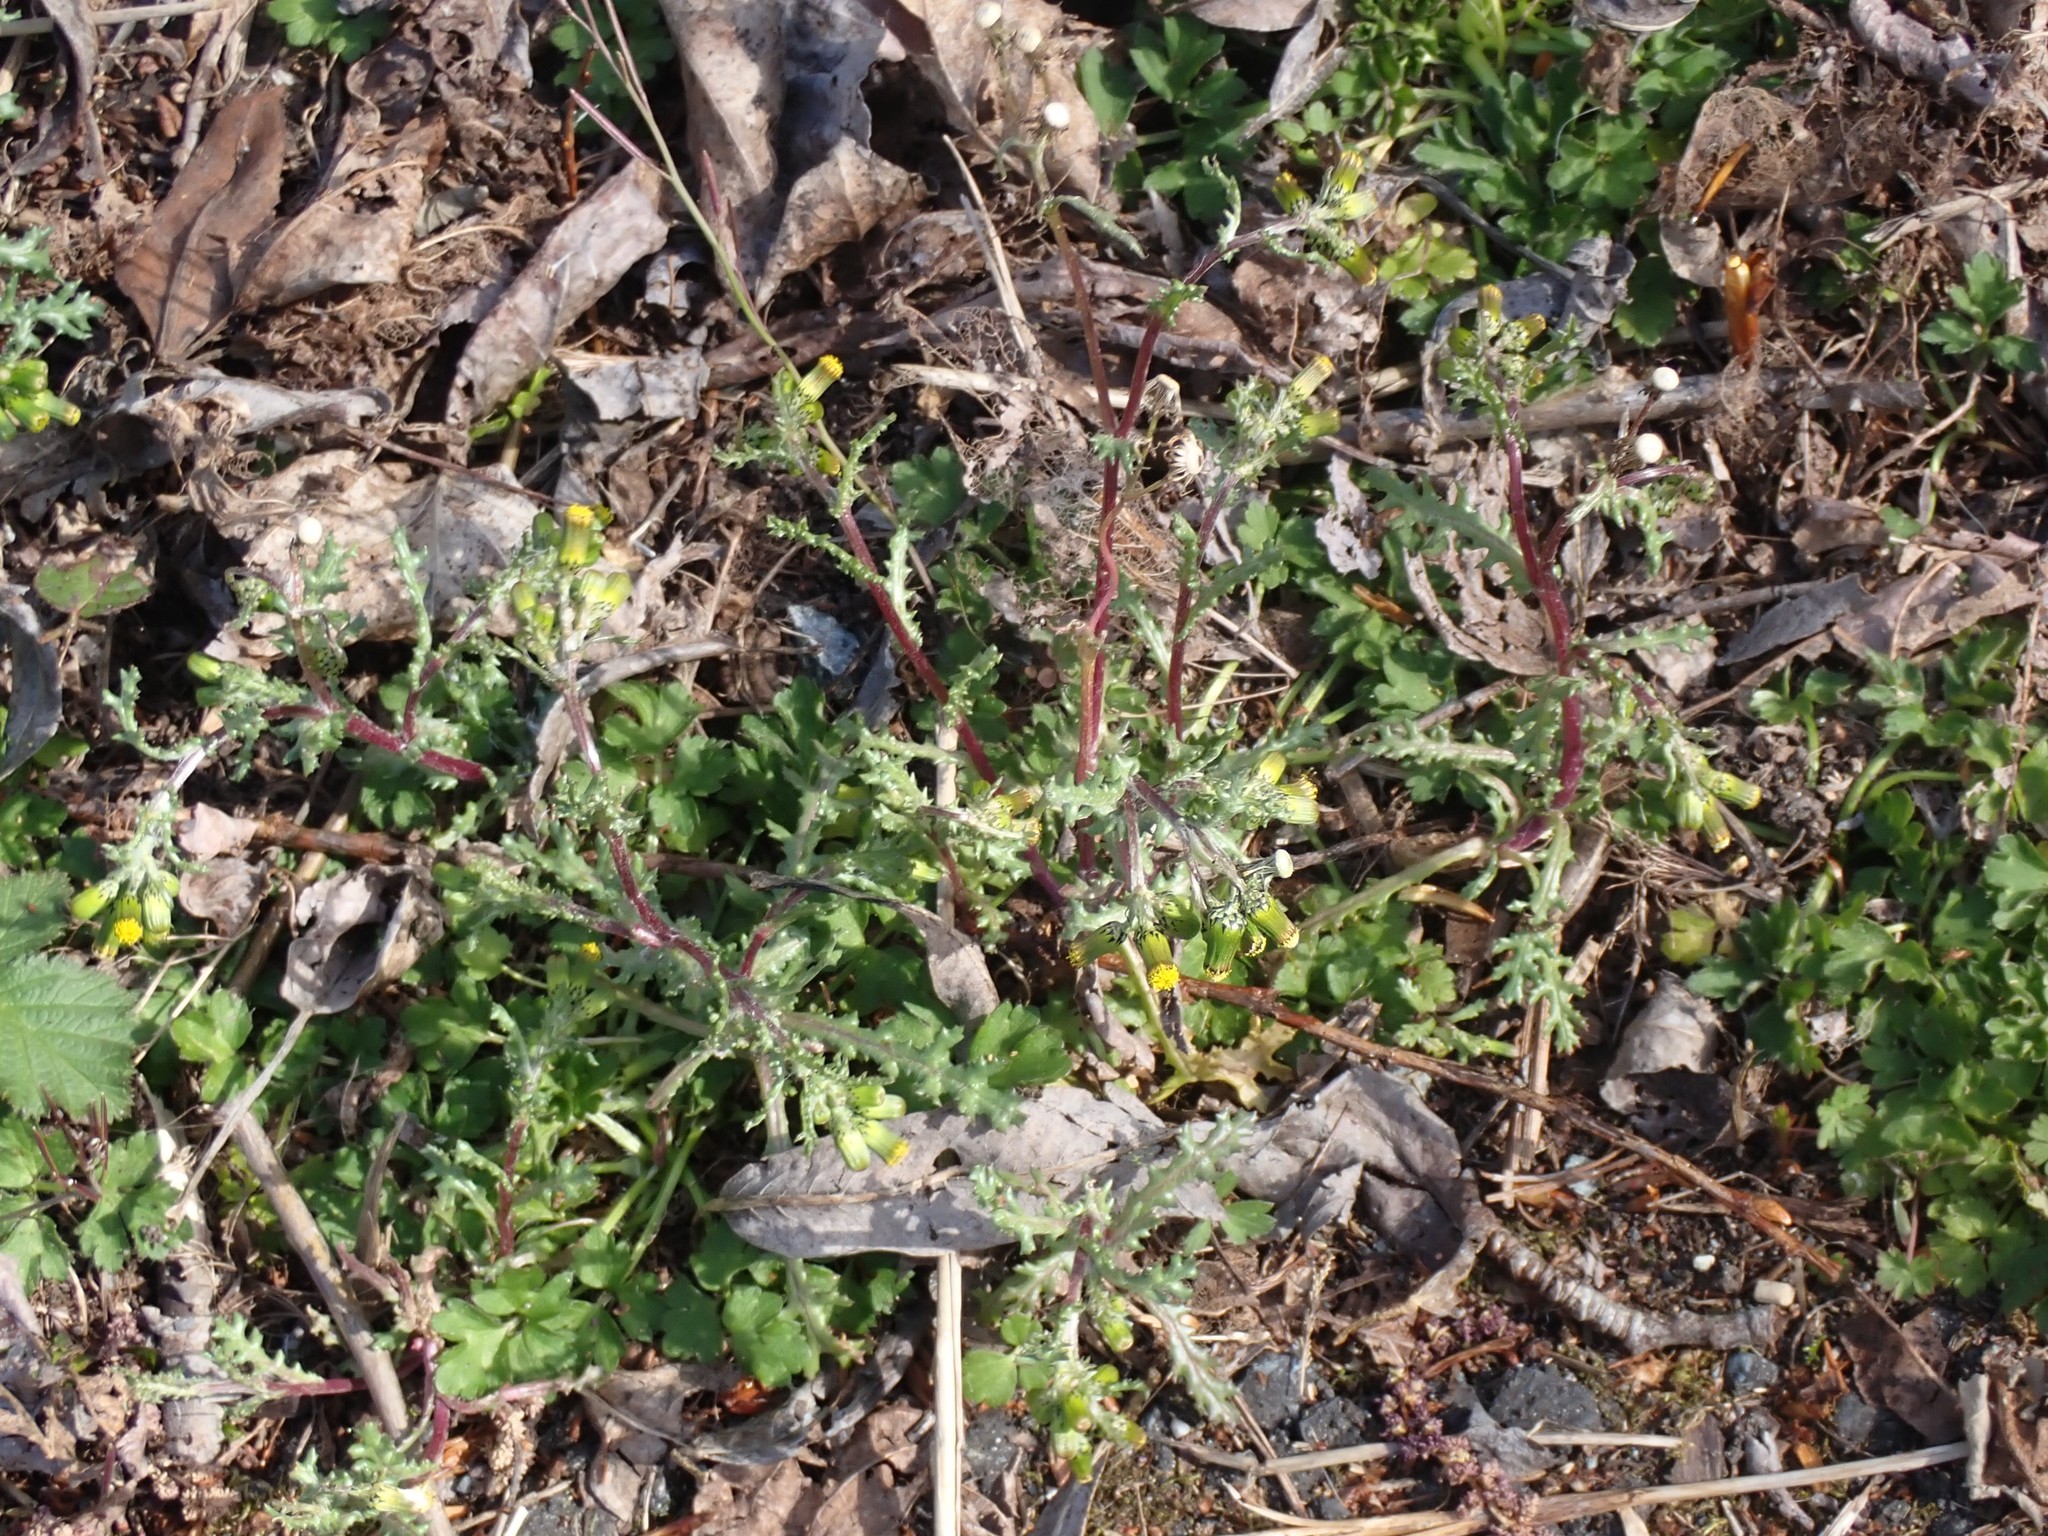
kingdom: Plantae
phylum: Tracheophyta
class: Magnoliopsida
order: Asterales
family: Asteraceae
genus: Senecio
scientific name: Senecio vulgaris
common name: Old-man-in-the-spring
